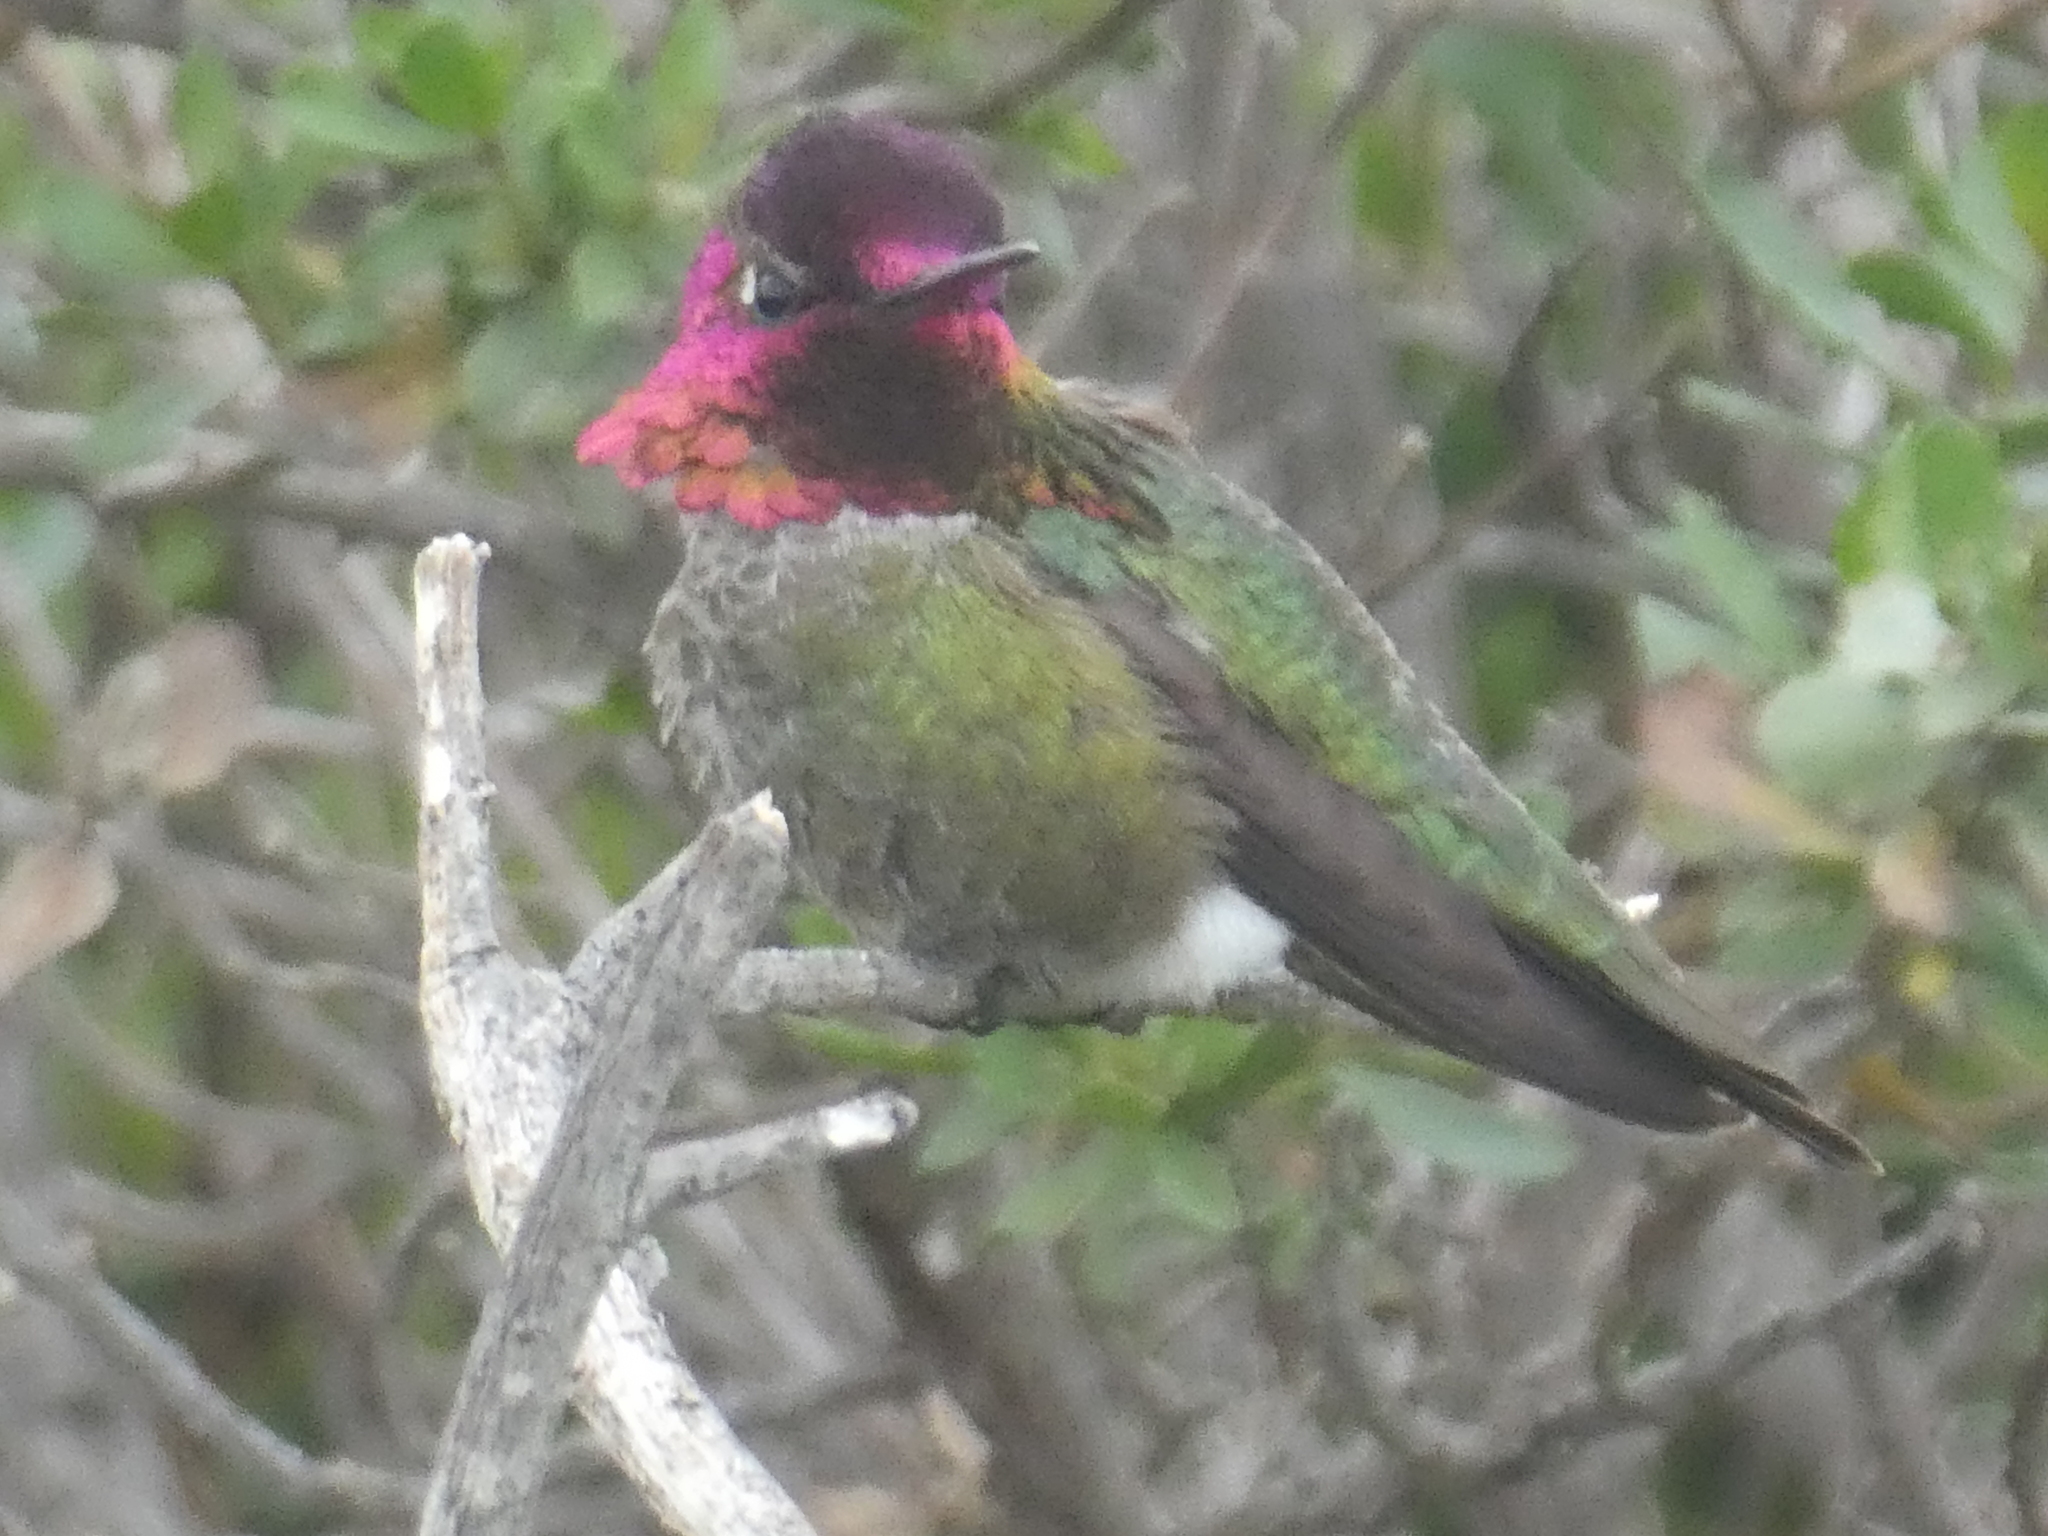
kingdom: Animalia
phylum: Chordata
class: Aves
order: Apodiformes
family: Trochilidae
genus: Calypte
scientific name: Calypte anna
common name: Anna's hummingbird
